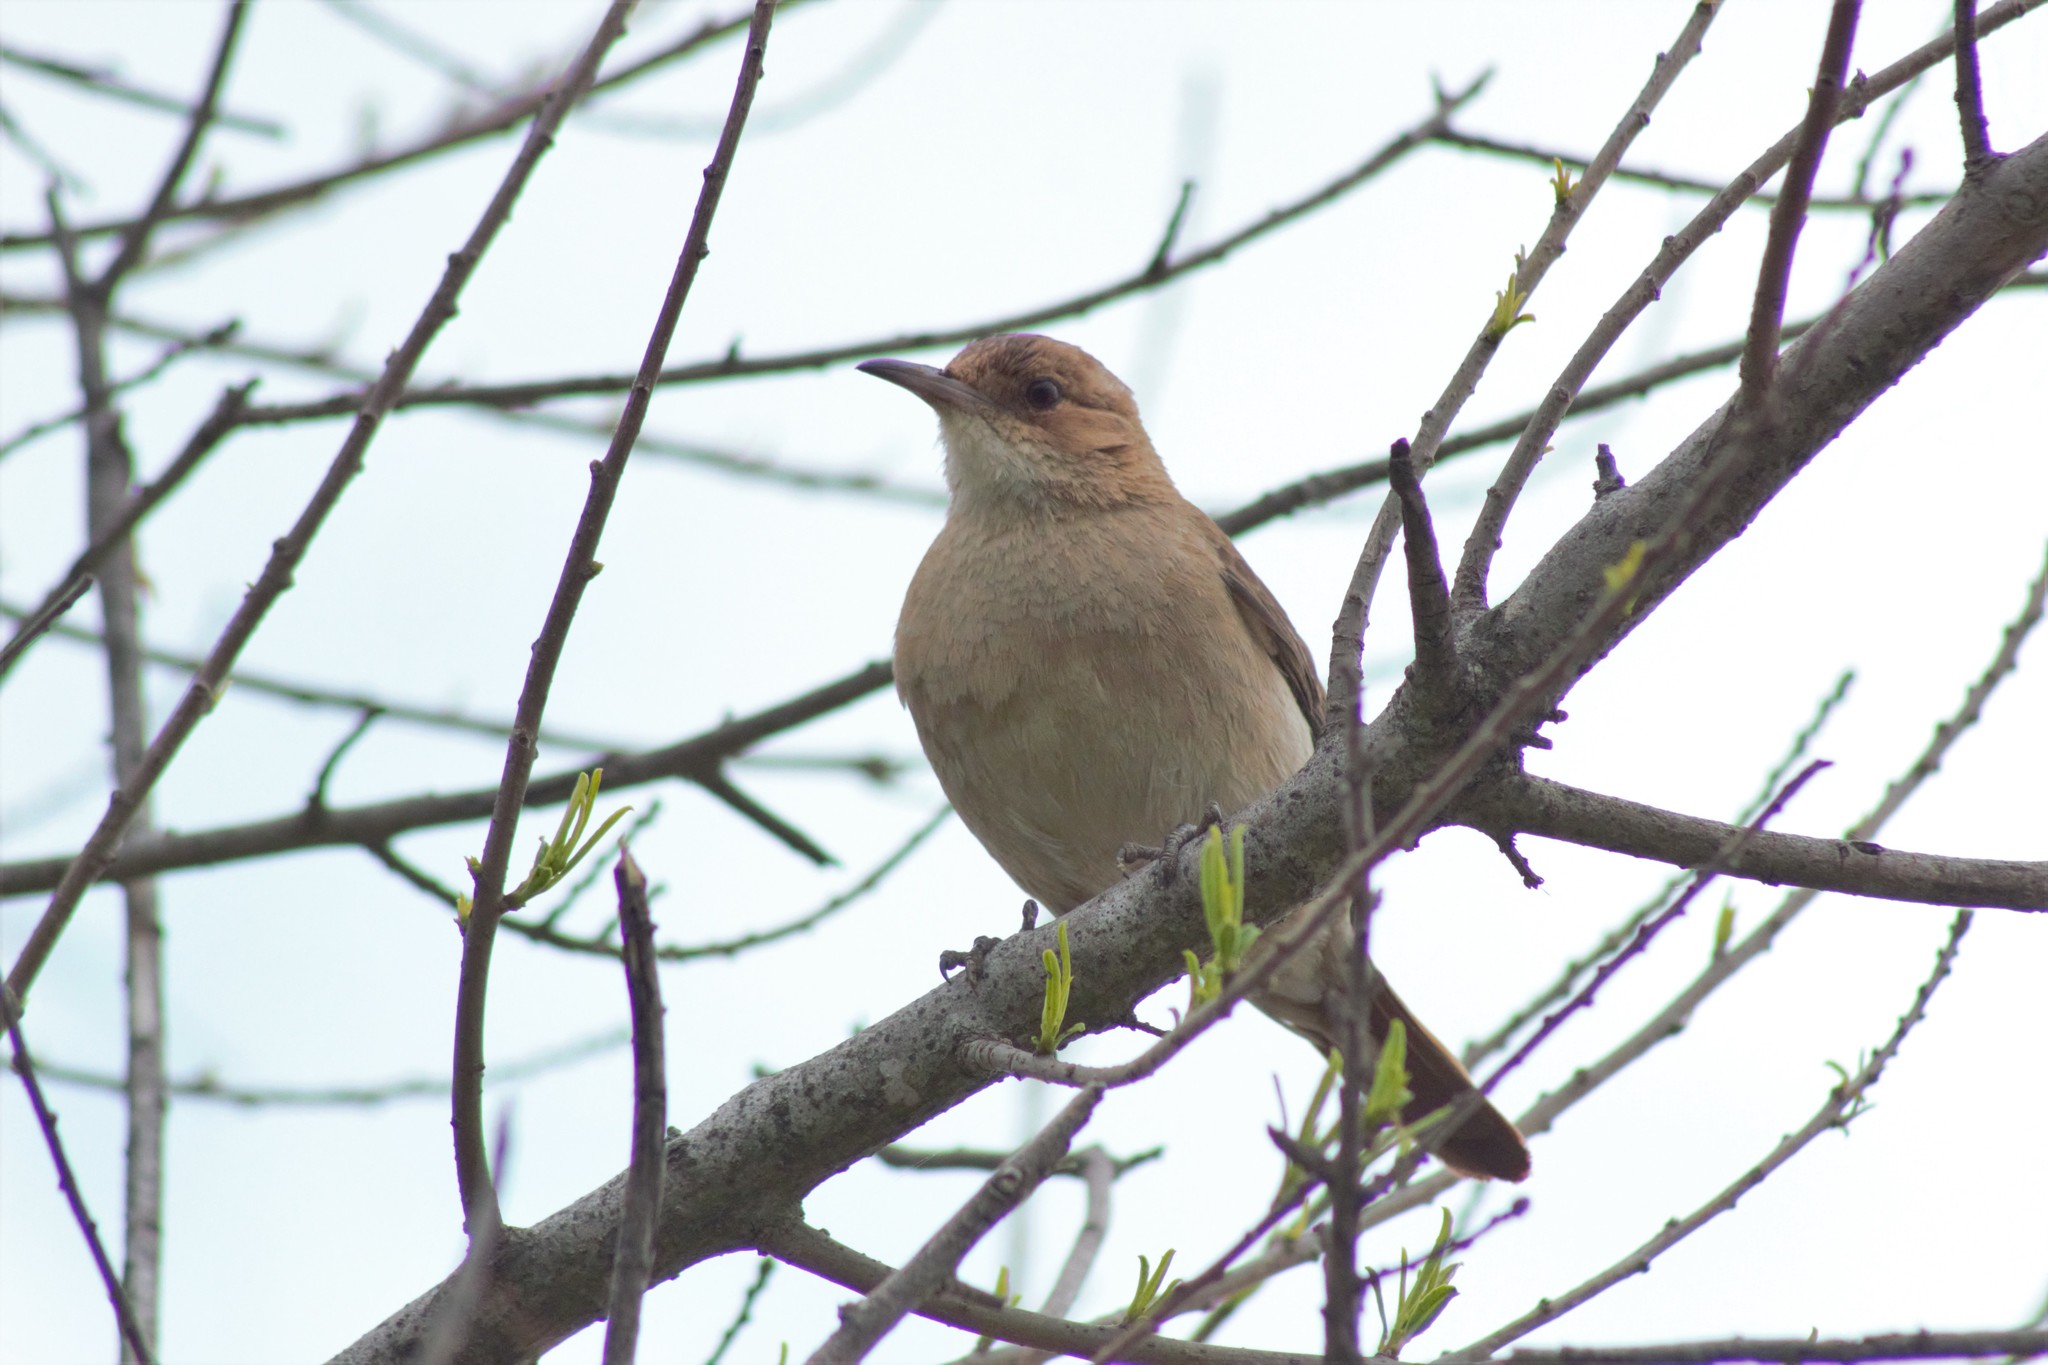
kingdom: Animalia
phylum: Chordata
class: Aves
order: Passeriformes
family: Furnariidae
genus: Furnarius
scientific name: Furnarius rufus
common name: Rufous hornero
